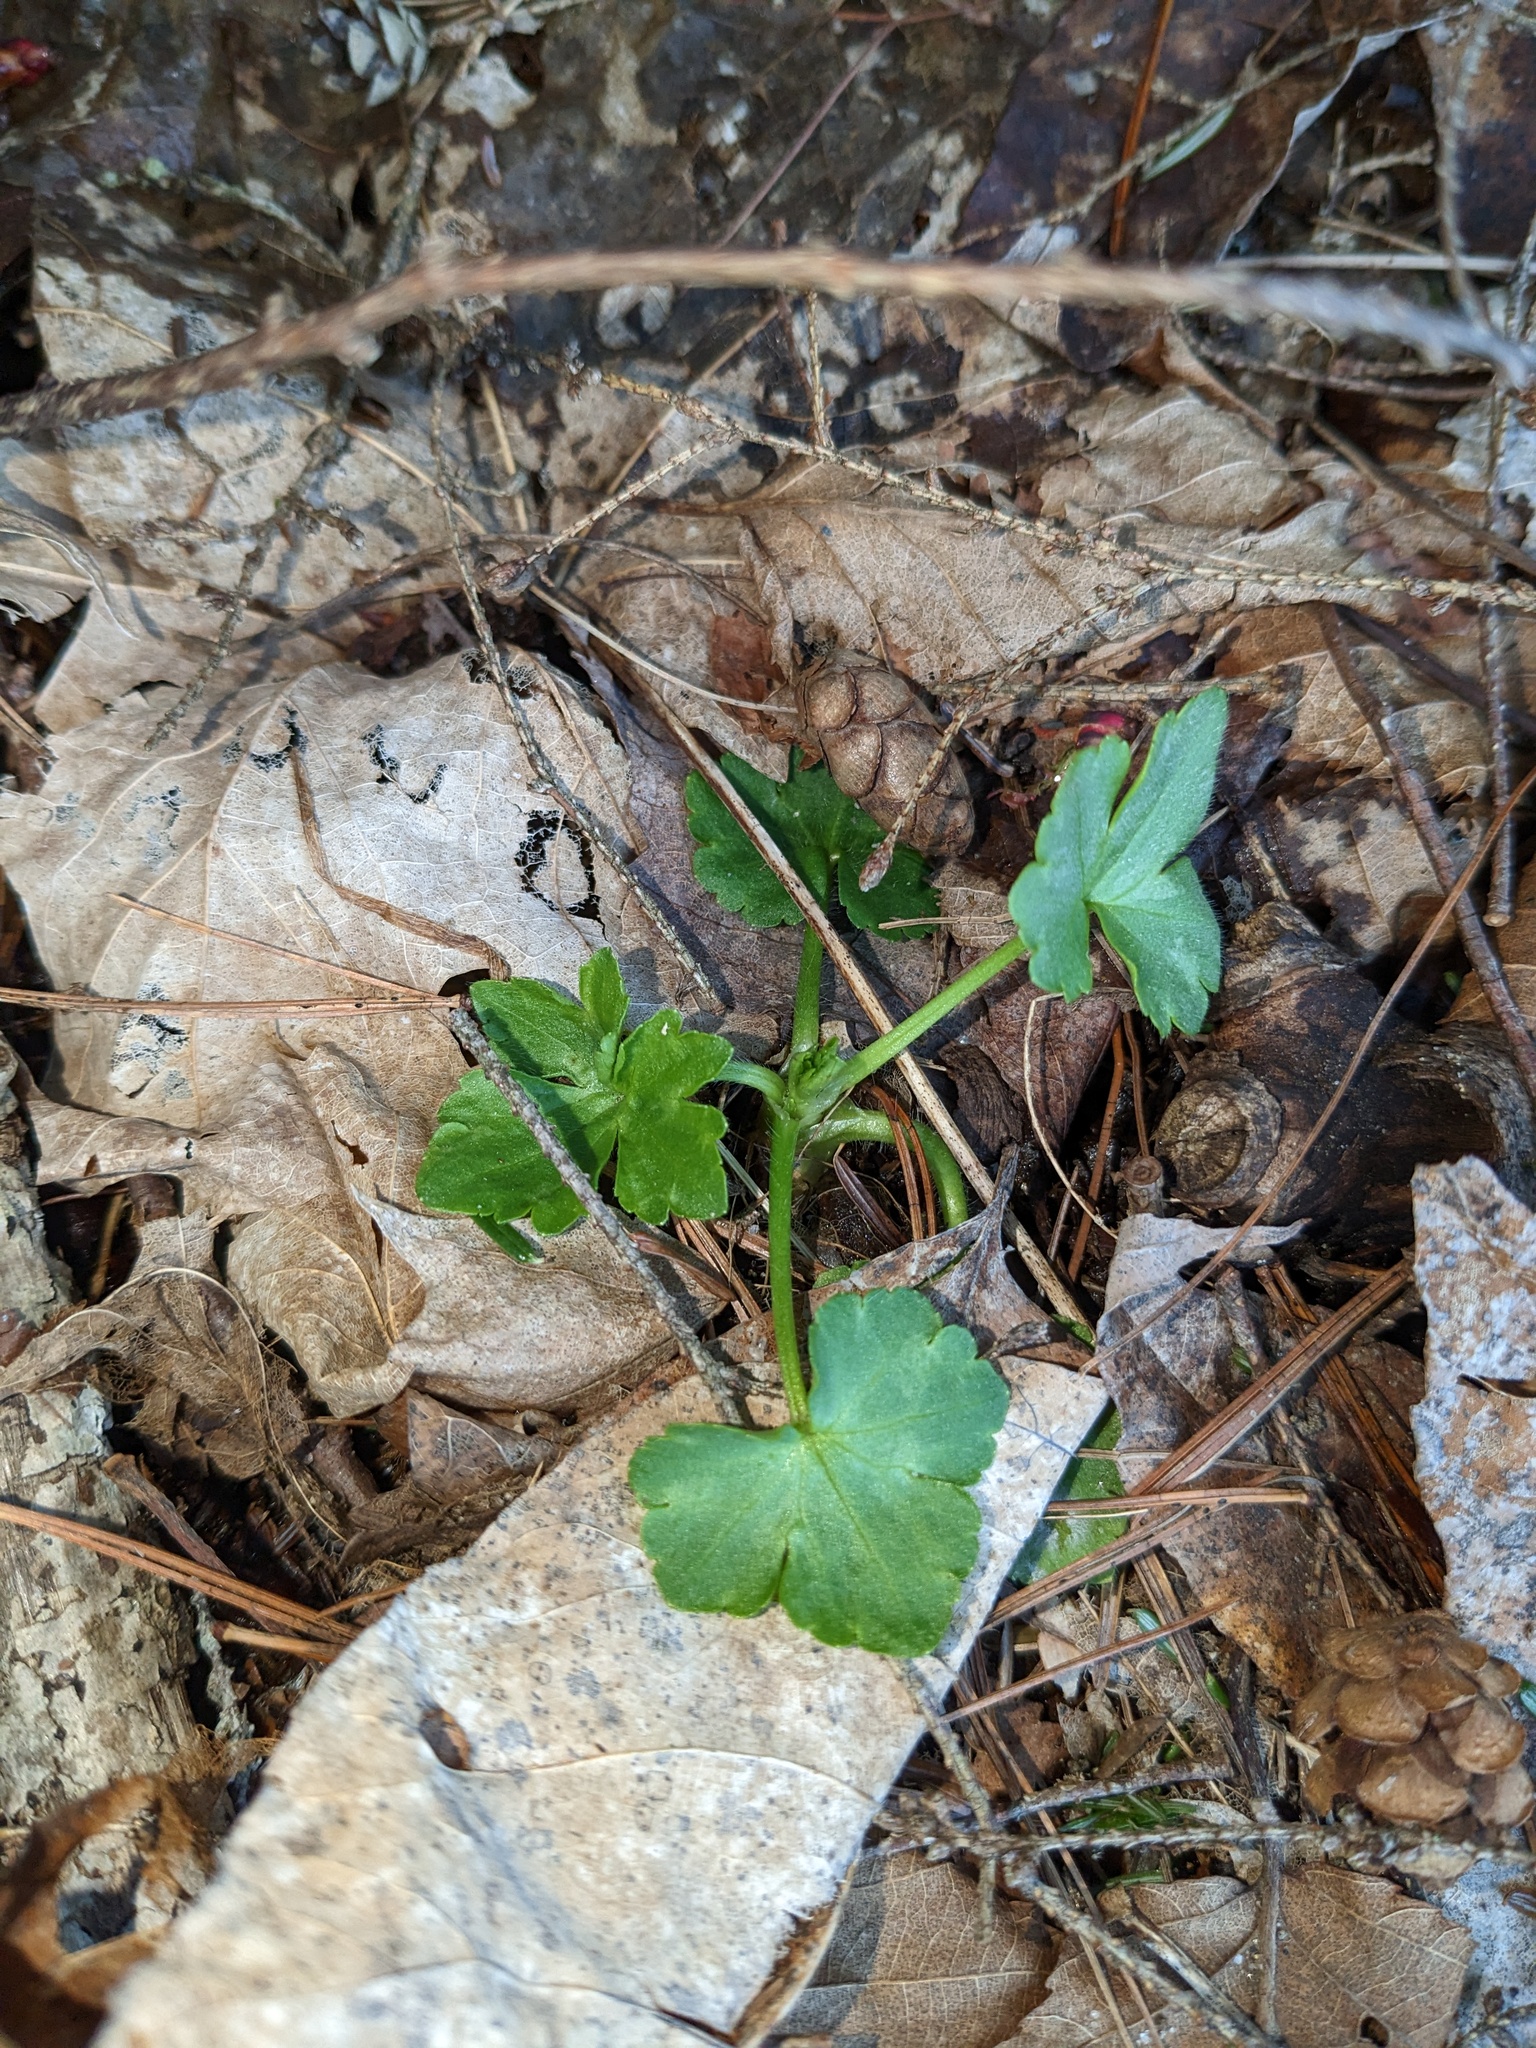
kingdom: Plantae
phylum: Tracheophyta
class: Magnoliopsida
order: Ranunculales
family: Ranunculaceae
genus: Ranunculus
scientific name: Ranunculus recurvatus
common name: Blisterwort
